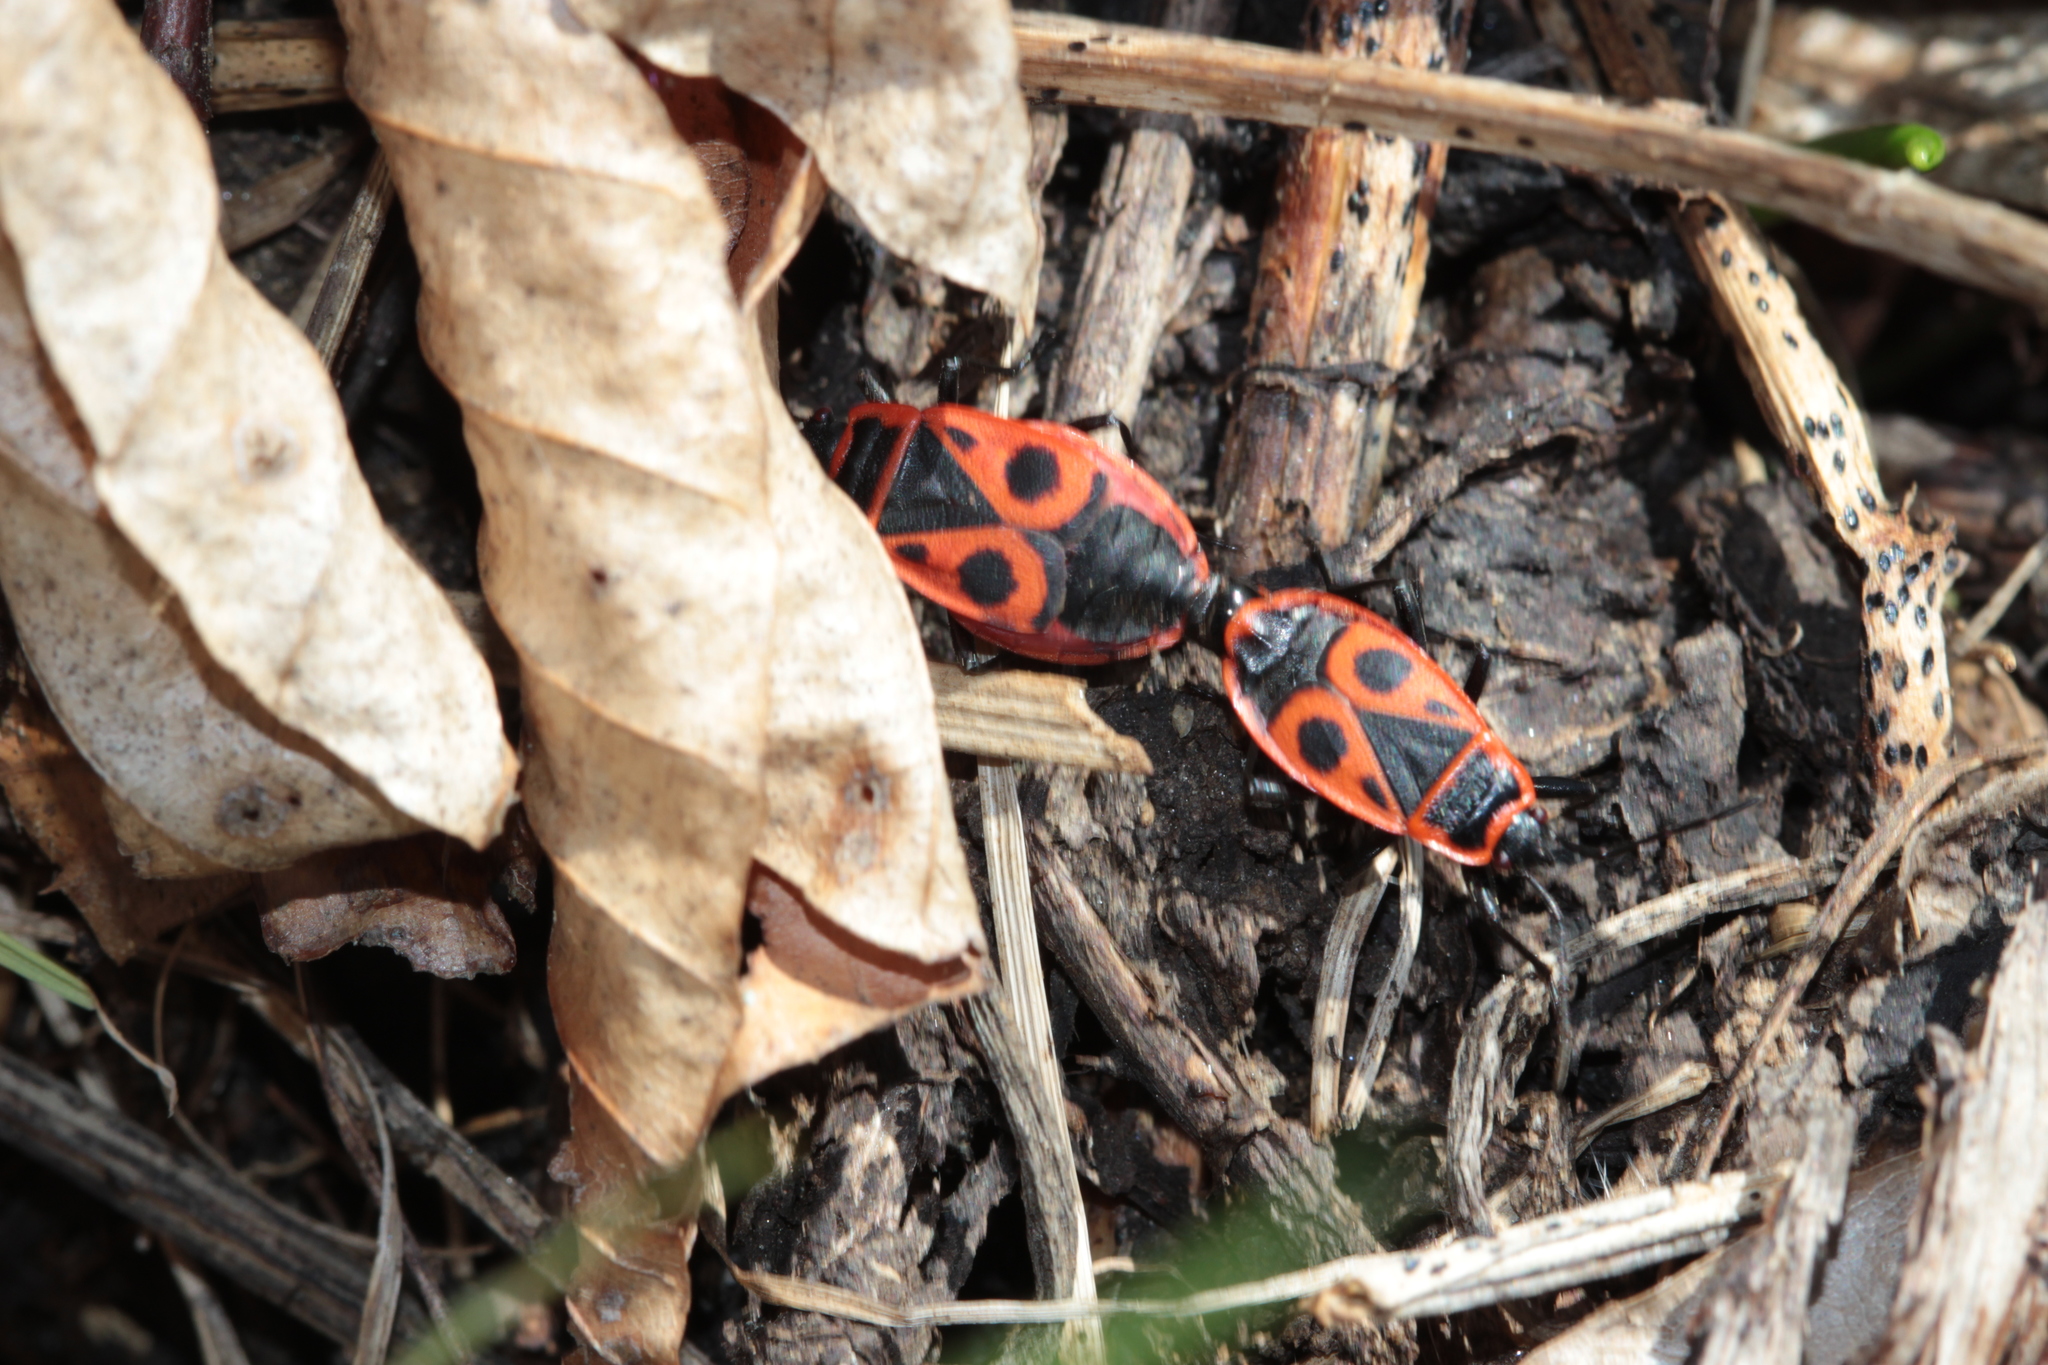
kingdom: Animalia
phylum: Arthropoda
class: Insecta
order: Hemiptera
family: Pyrrhocoridae
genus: Pyrrhocoris
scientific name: Pyrrhocoris apterus
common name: Firebug
